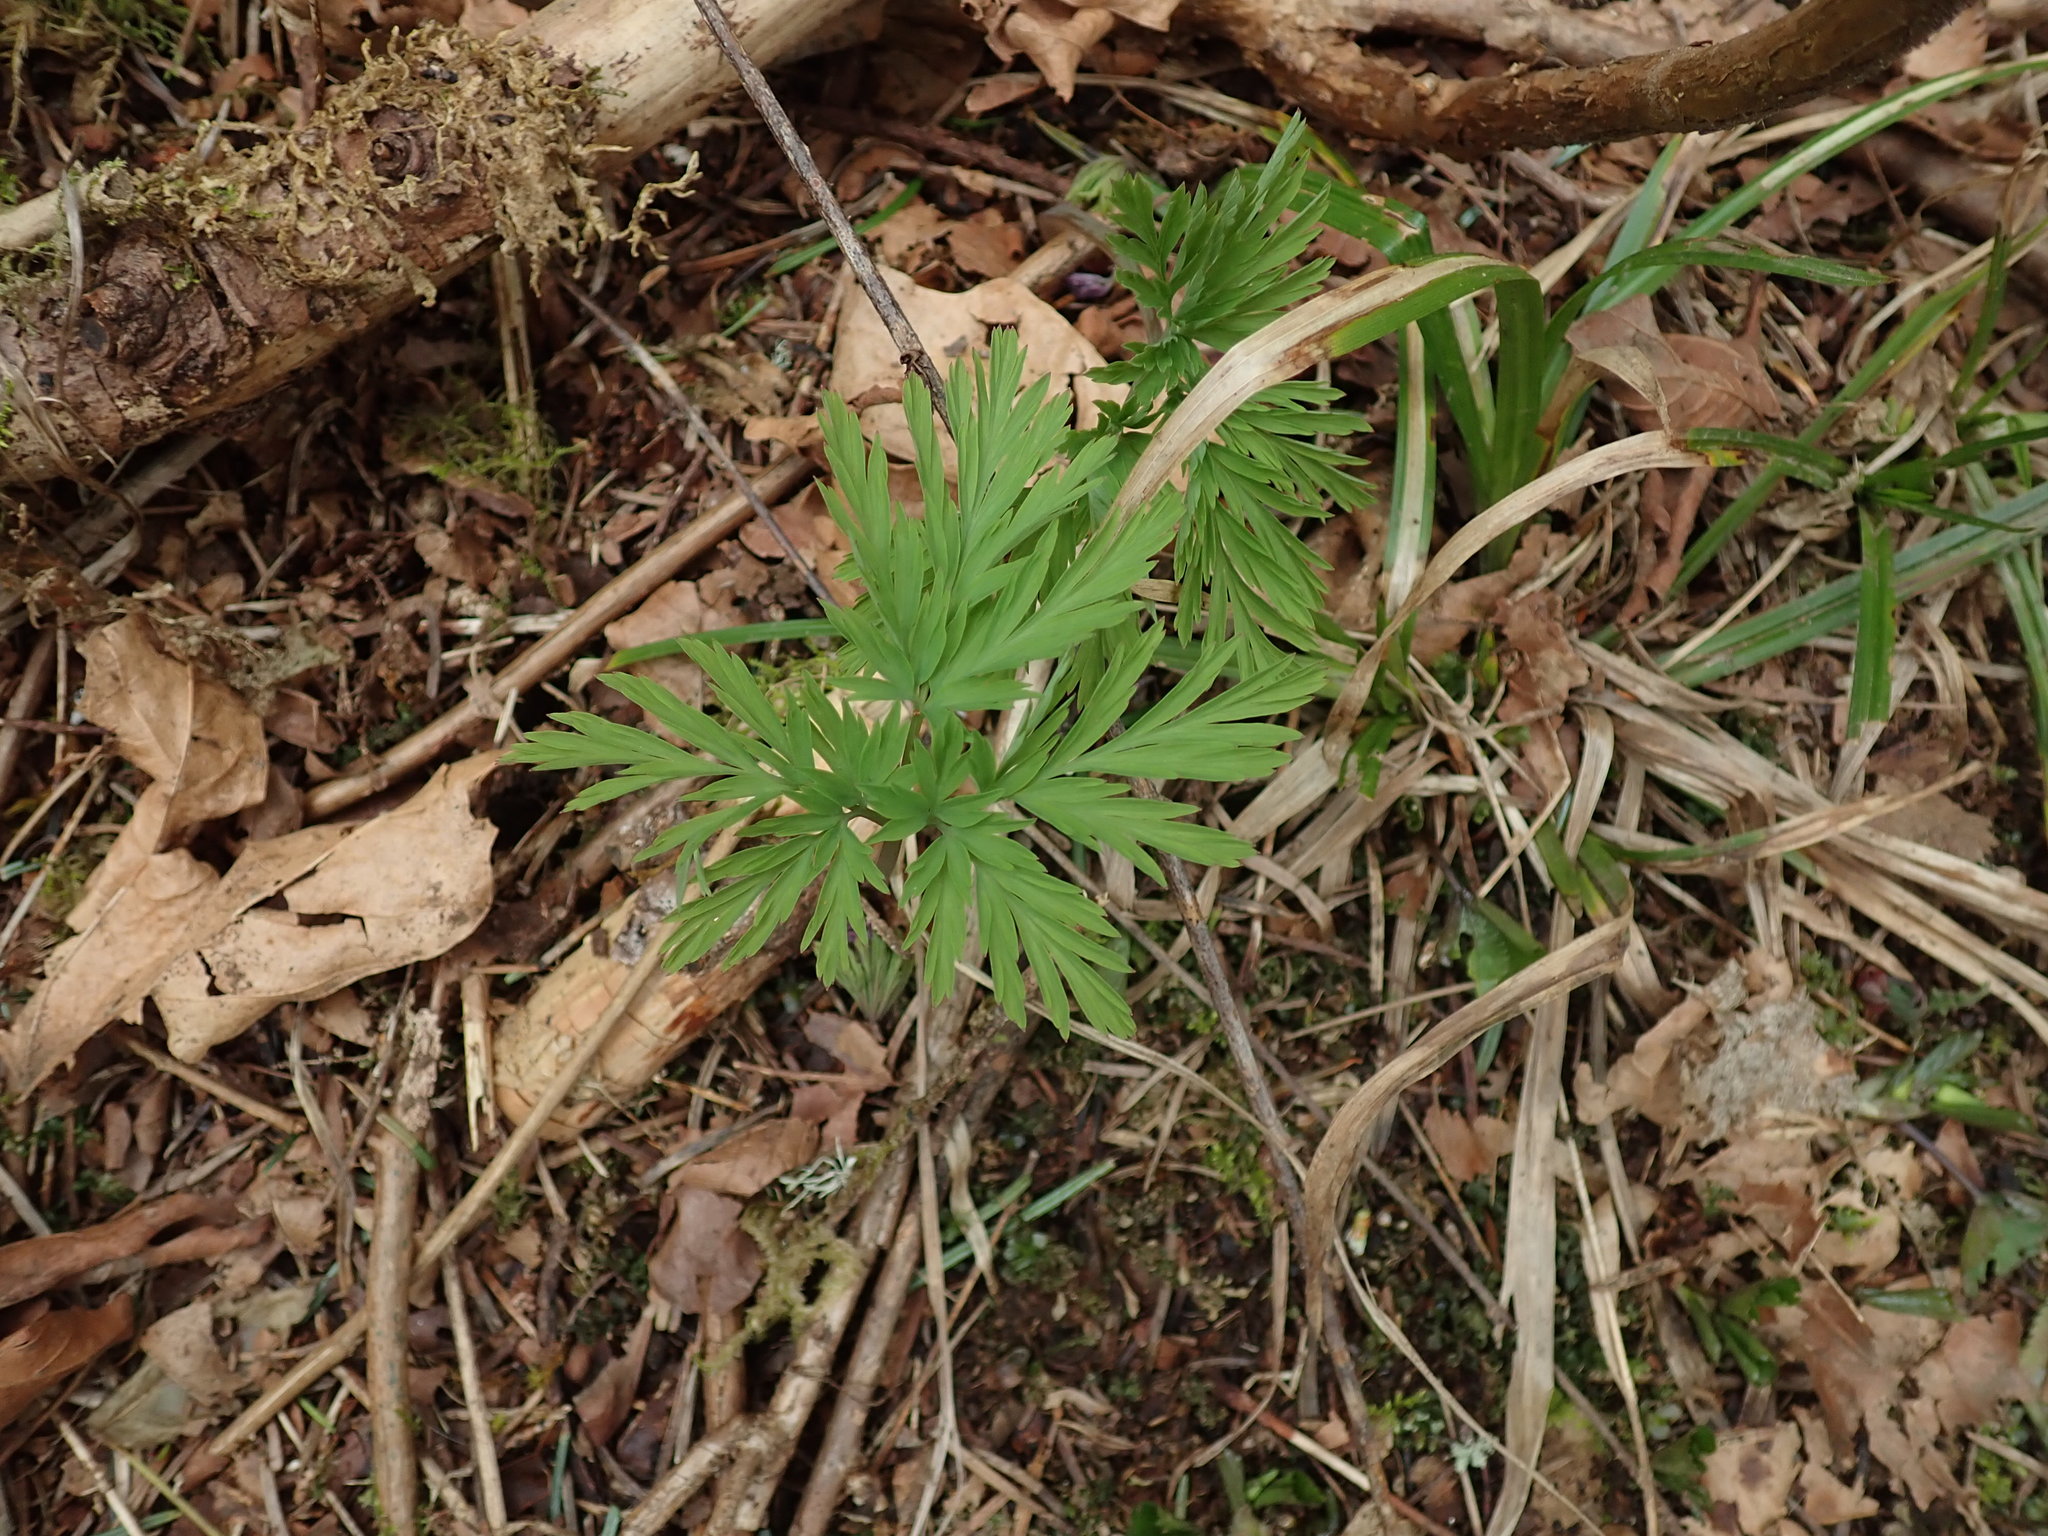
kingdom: Plantae
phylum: Tracheophyta
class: Magnoliopsida
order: Ranunculales
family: Papaveraceae
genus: Dicentra
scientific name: Dicentra formosa
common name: Bleeding-heart
